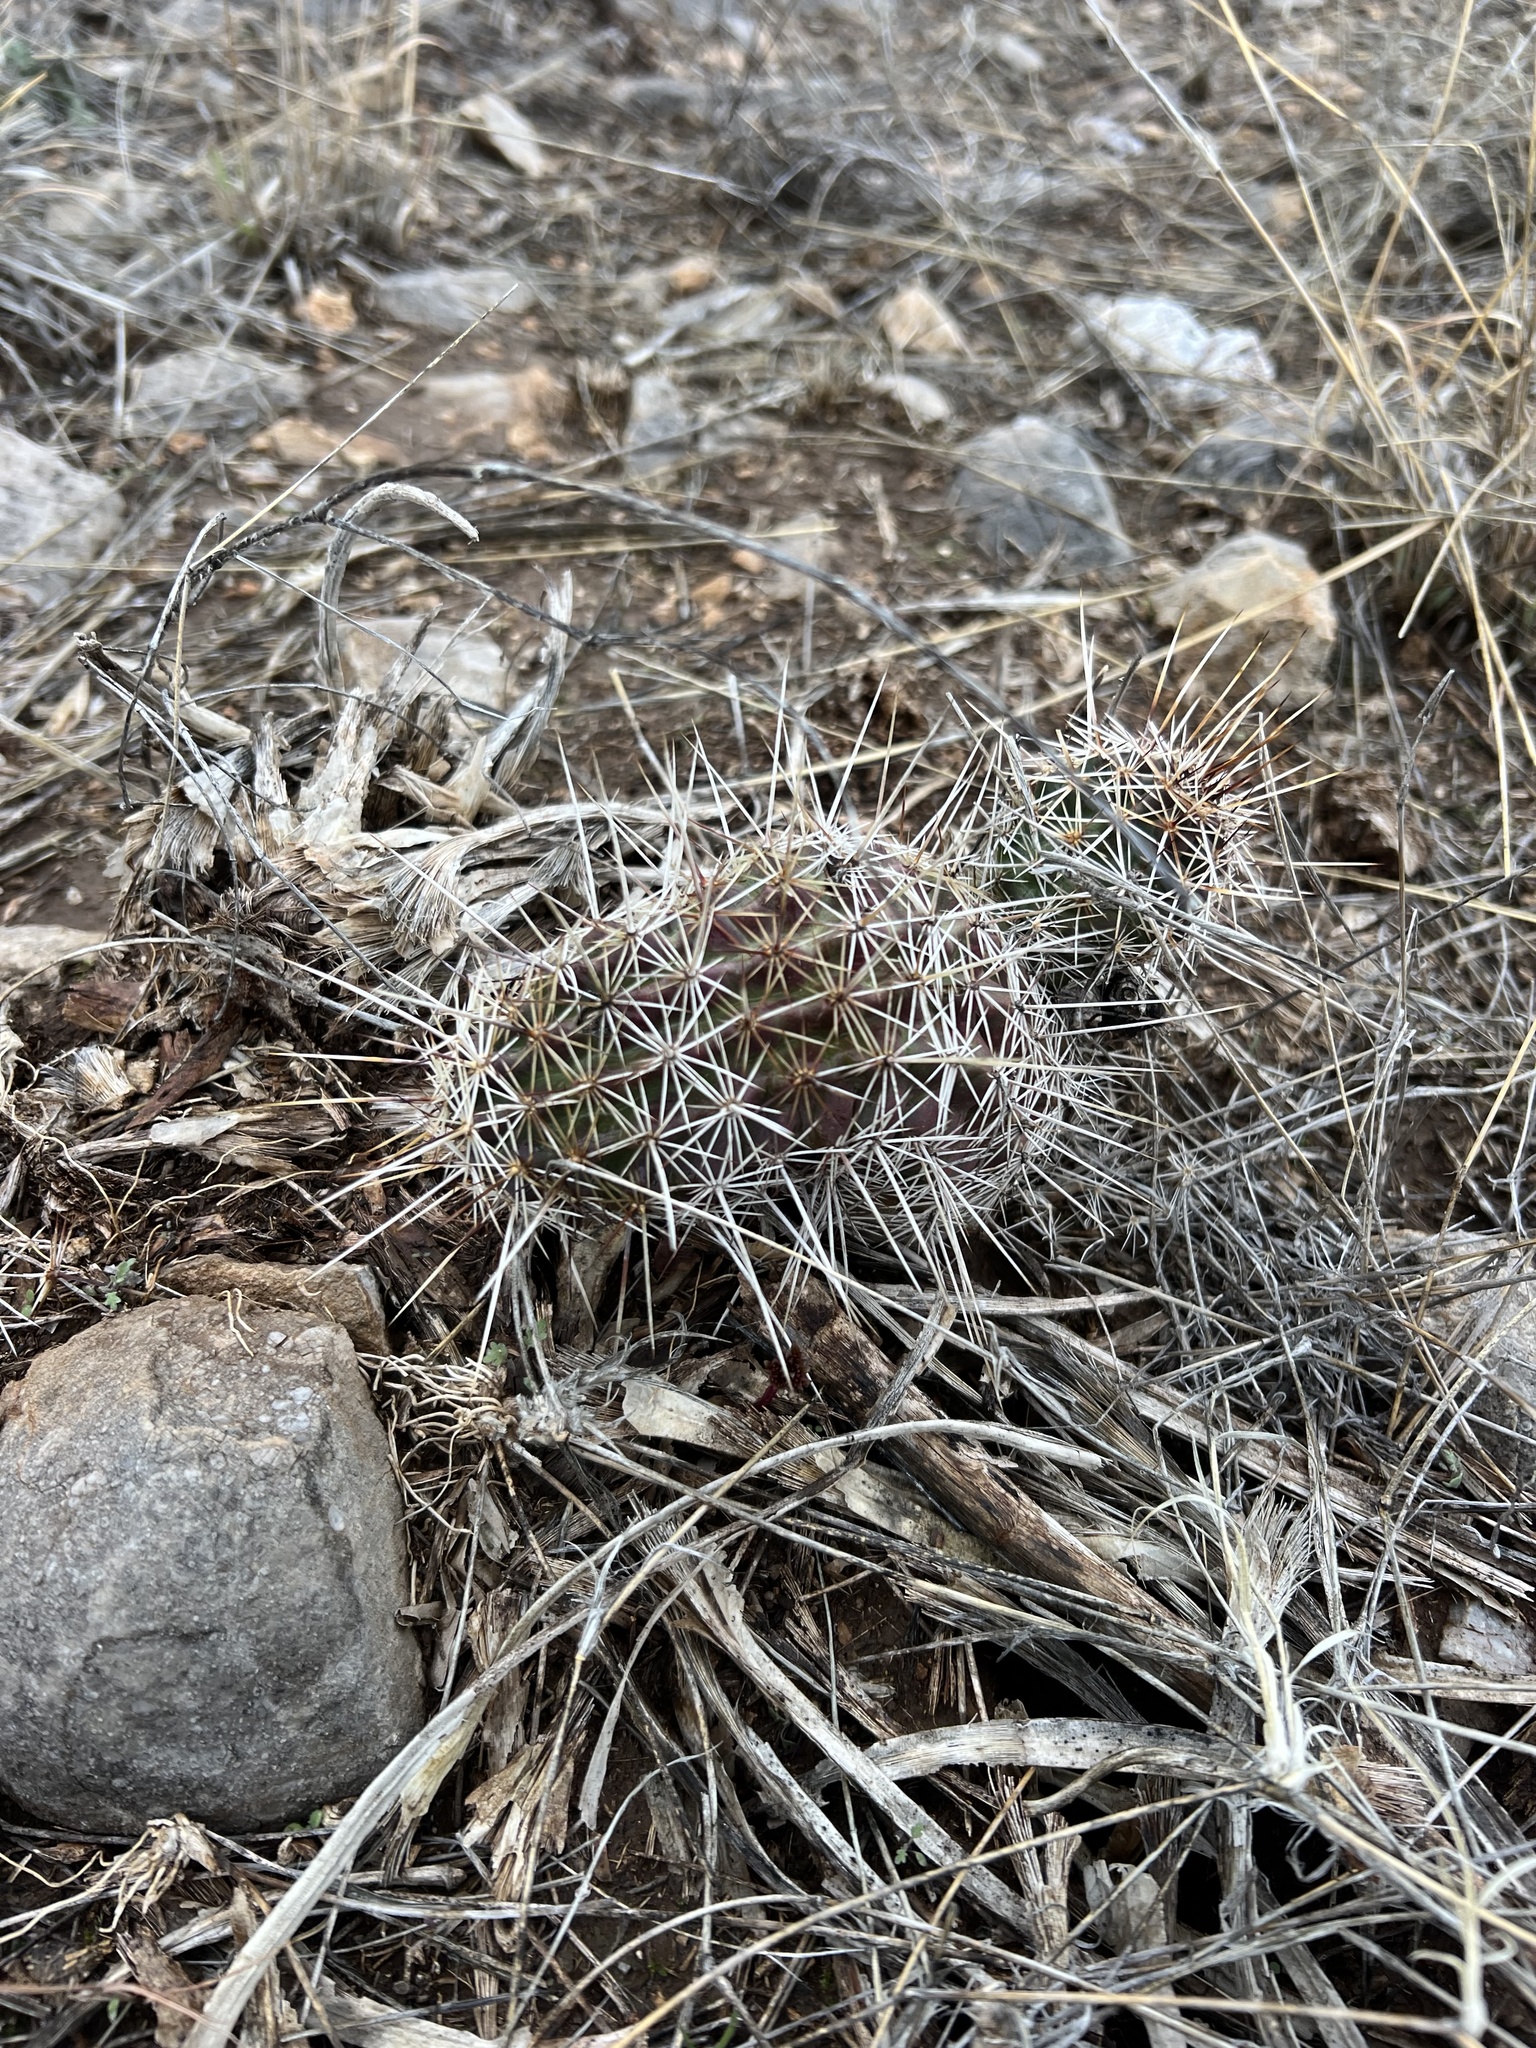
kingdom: Plantae
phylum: Tracheophyta
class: Magnoliopsida
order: Caryophyllales
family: Cactaceae
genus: Echinocereus
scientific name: Echinocereus fasciculatus
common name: Bundle hedgehog
